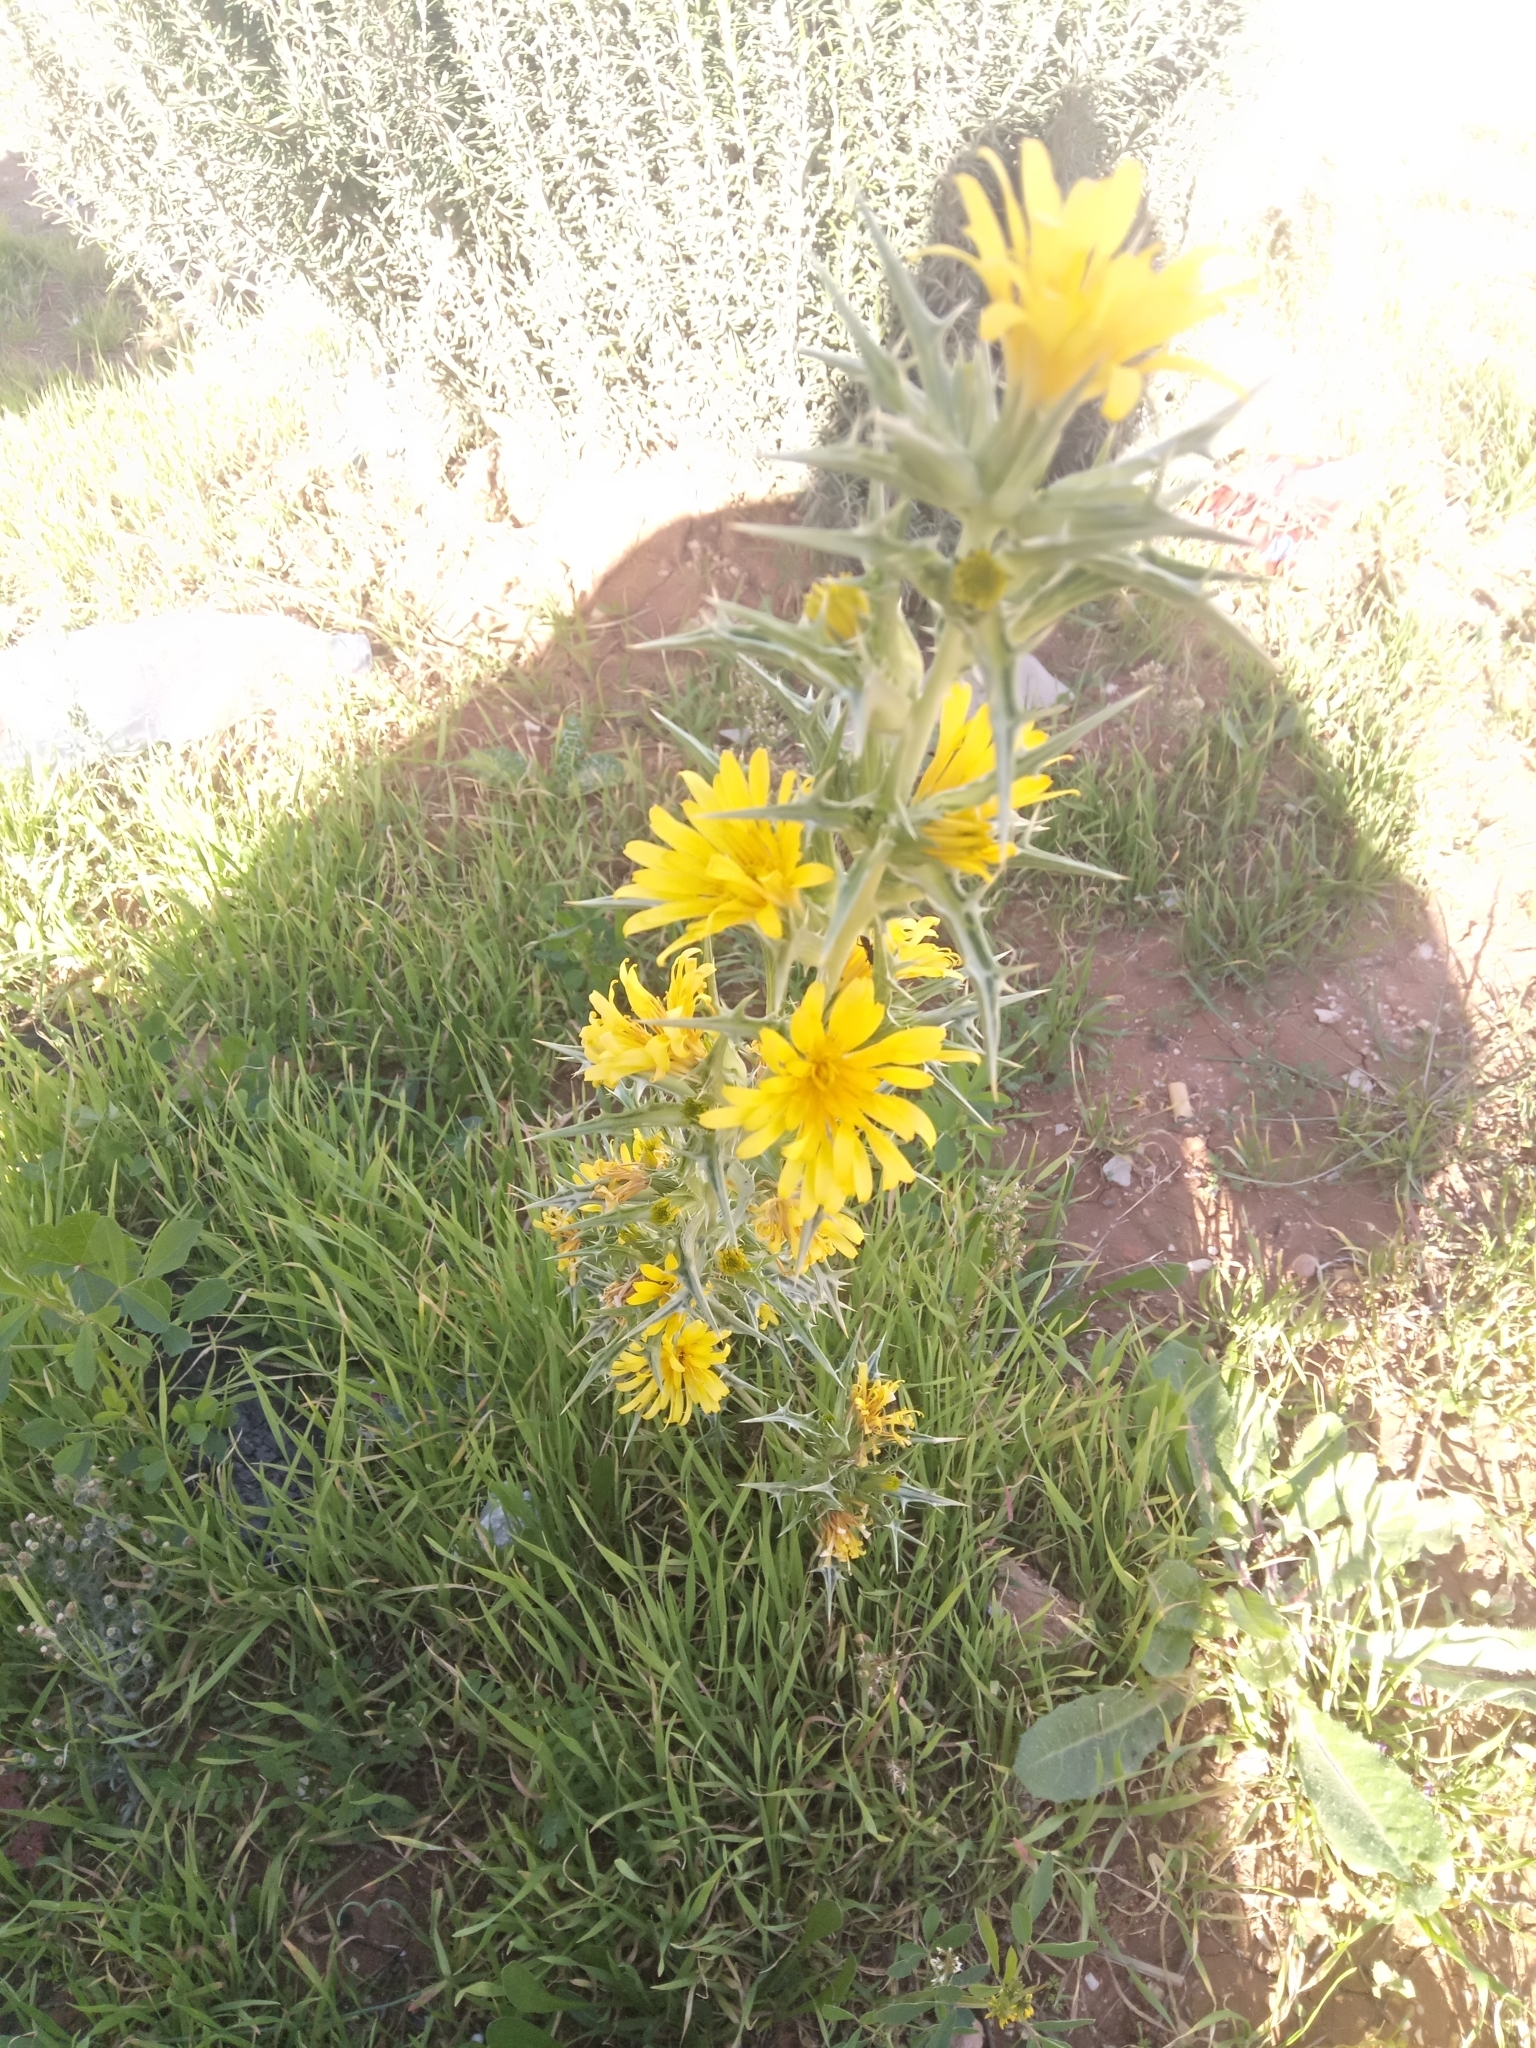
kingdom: Plantae
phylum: Tracheophyta
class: Magnoliopsida
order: Asterales
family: Asteraceae
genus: Scolymus
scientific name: Scolymus hispanicus
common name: Golden thistle
